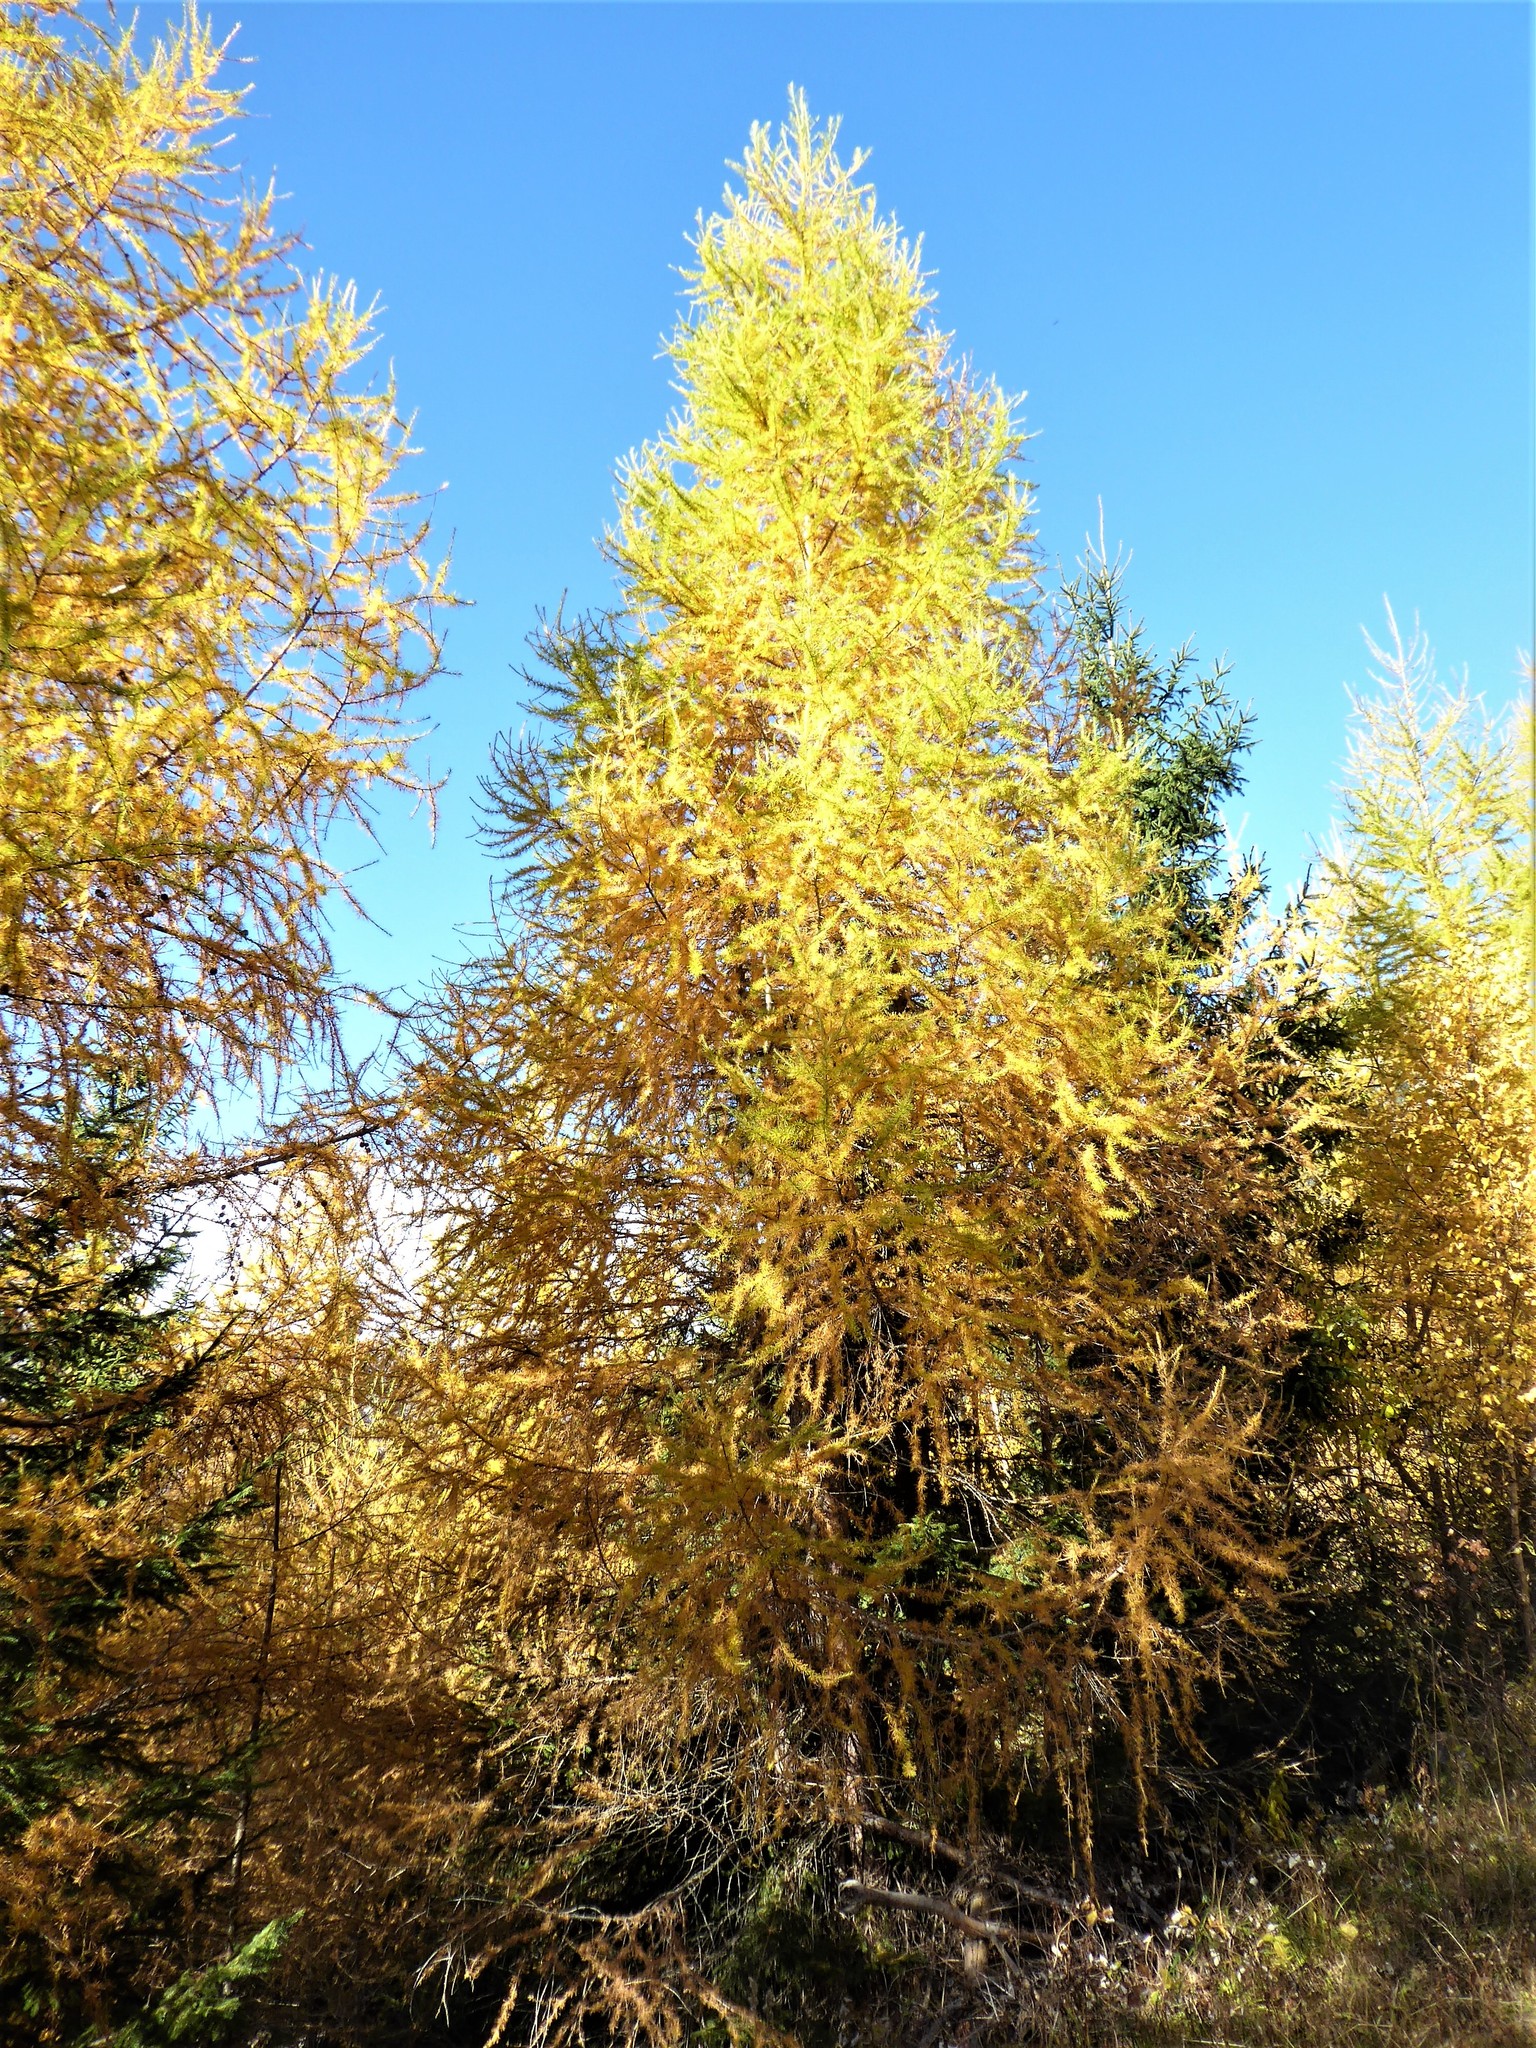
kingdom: Plantae
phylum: Tracheophyta
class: Pinopsida
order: Pinales
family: Pinaceae
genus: Larix
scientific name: Larix decidua
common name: European larch
